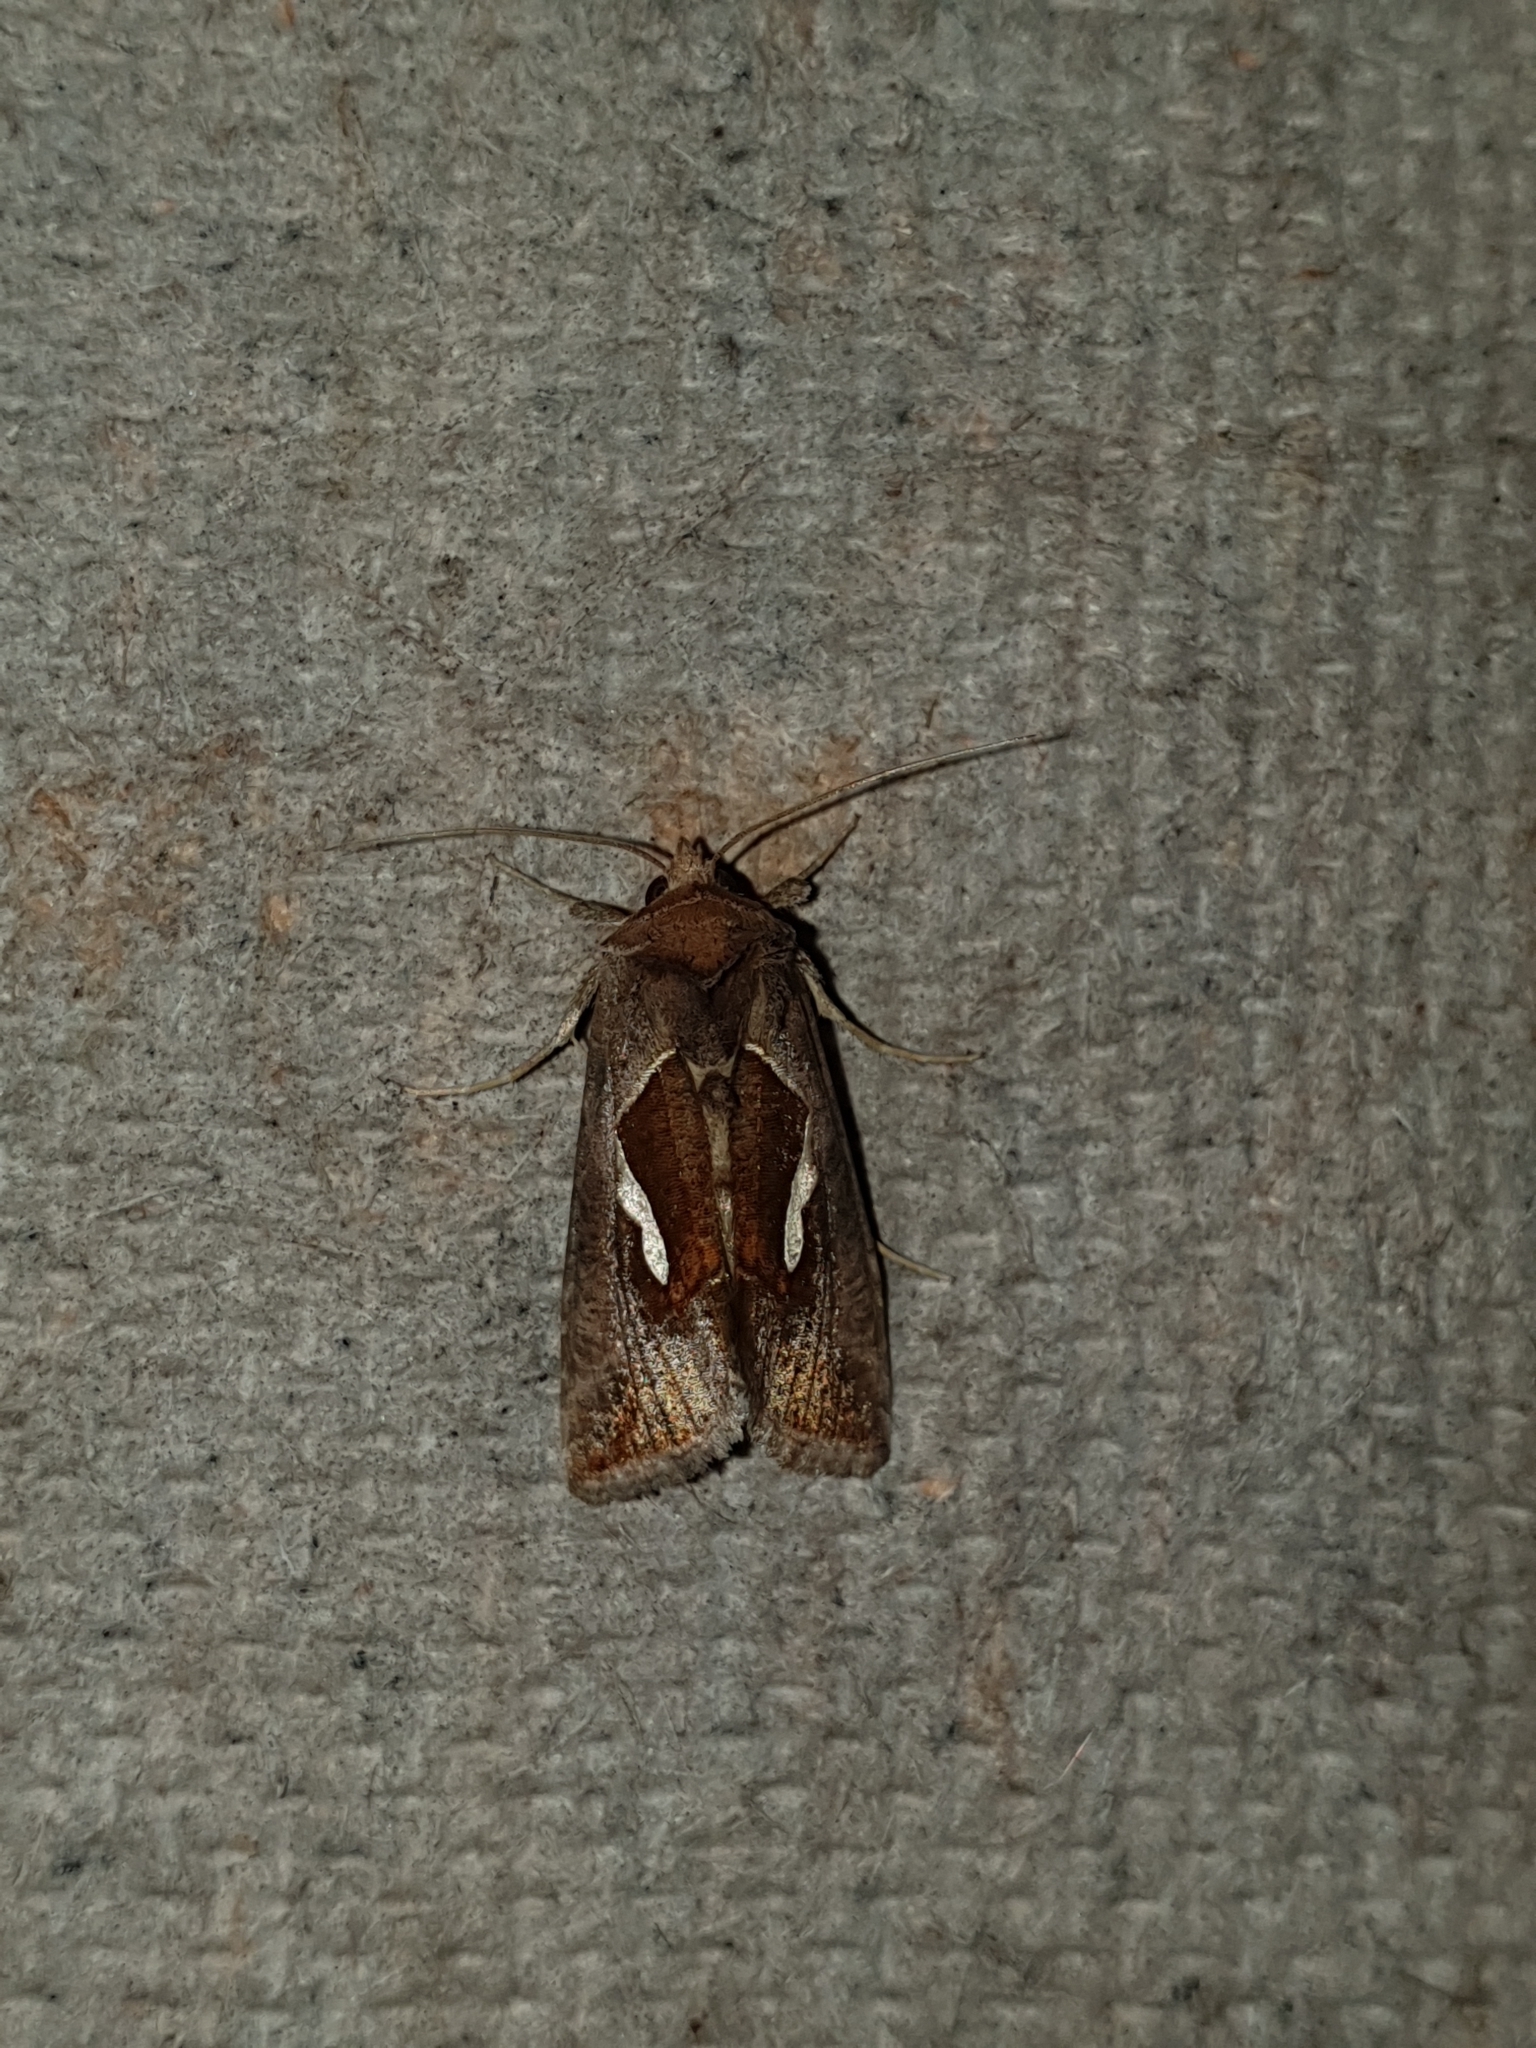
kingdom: Animalia
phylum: Arthropoda
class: Insecta
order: Lepidoptera
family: Noctuidae
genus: Macdunnoughia
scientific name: Macdunnoughia confusa
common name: Dewick's plusia
